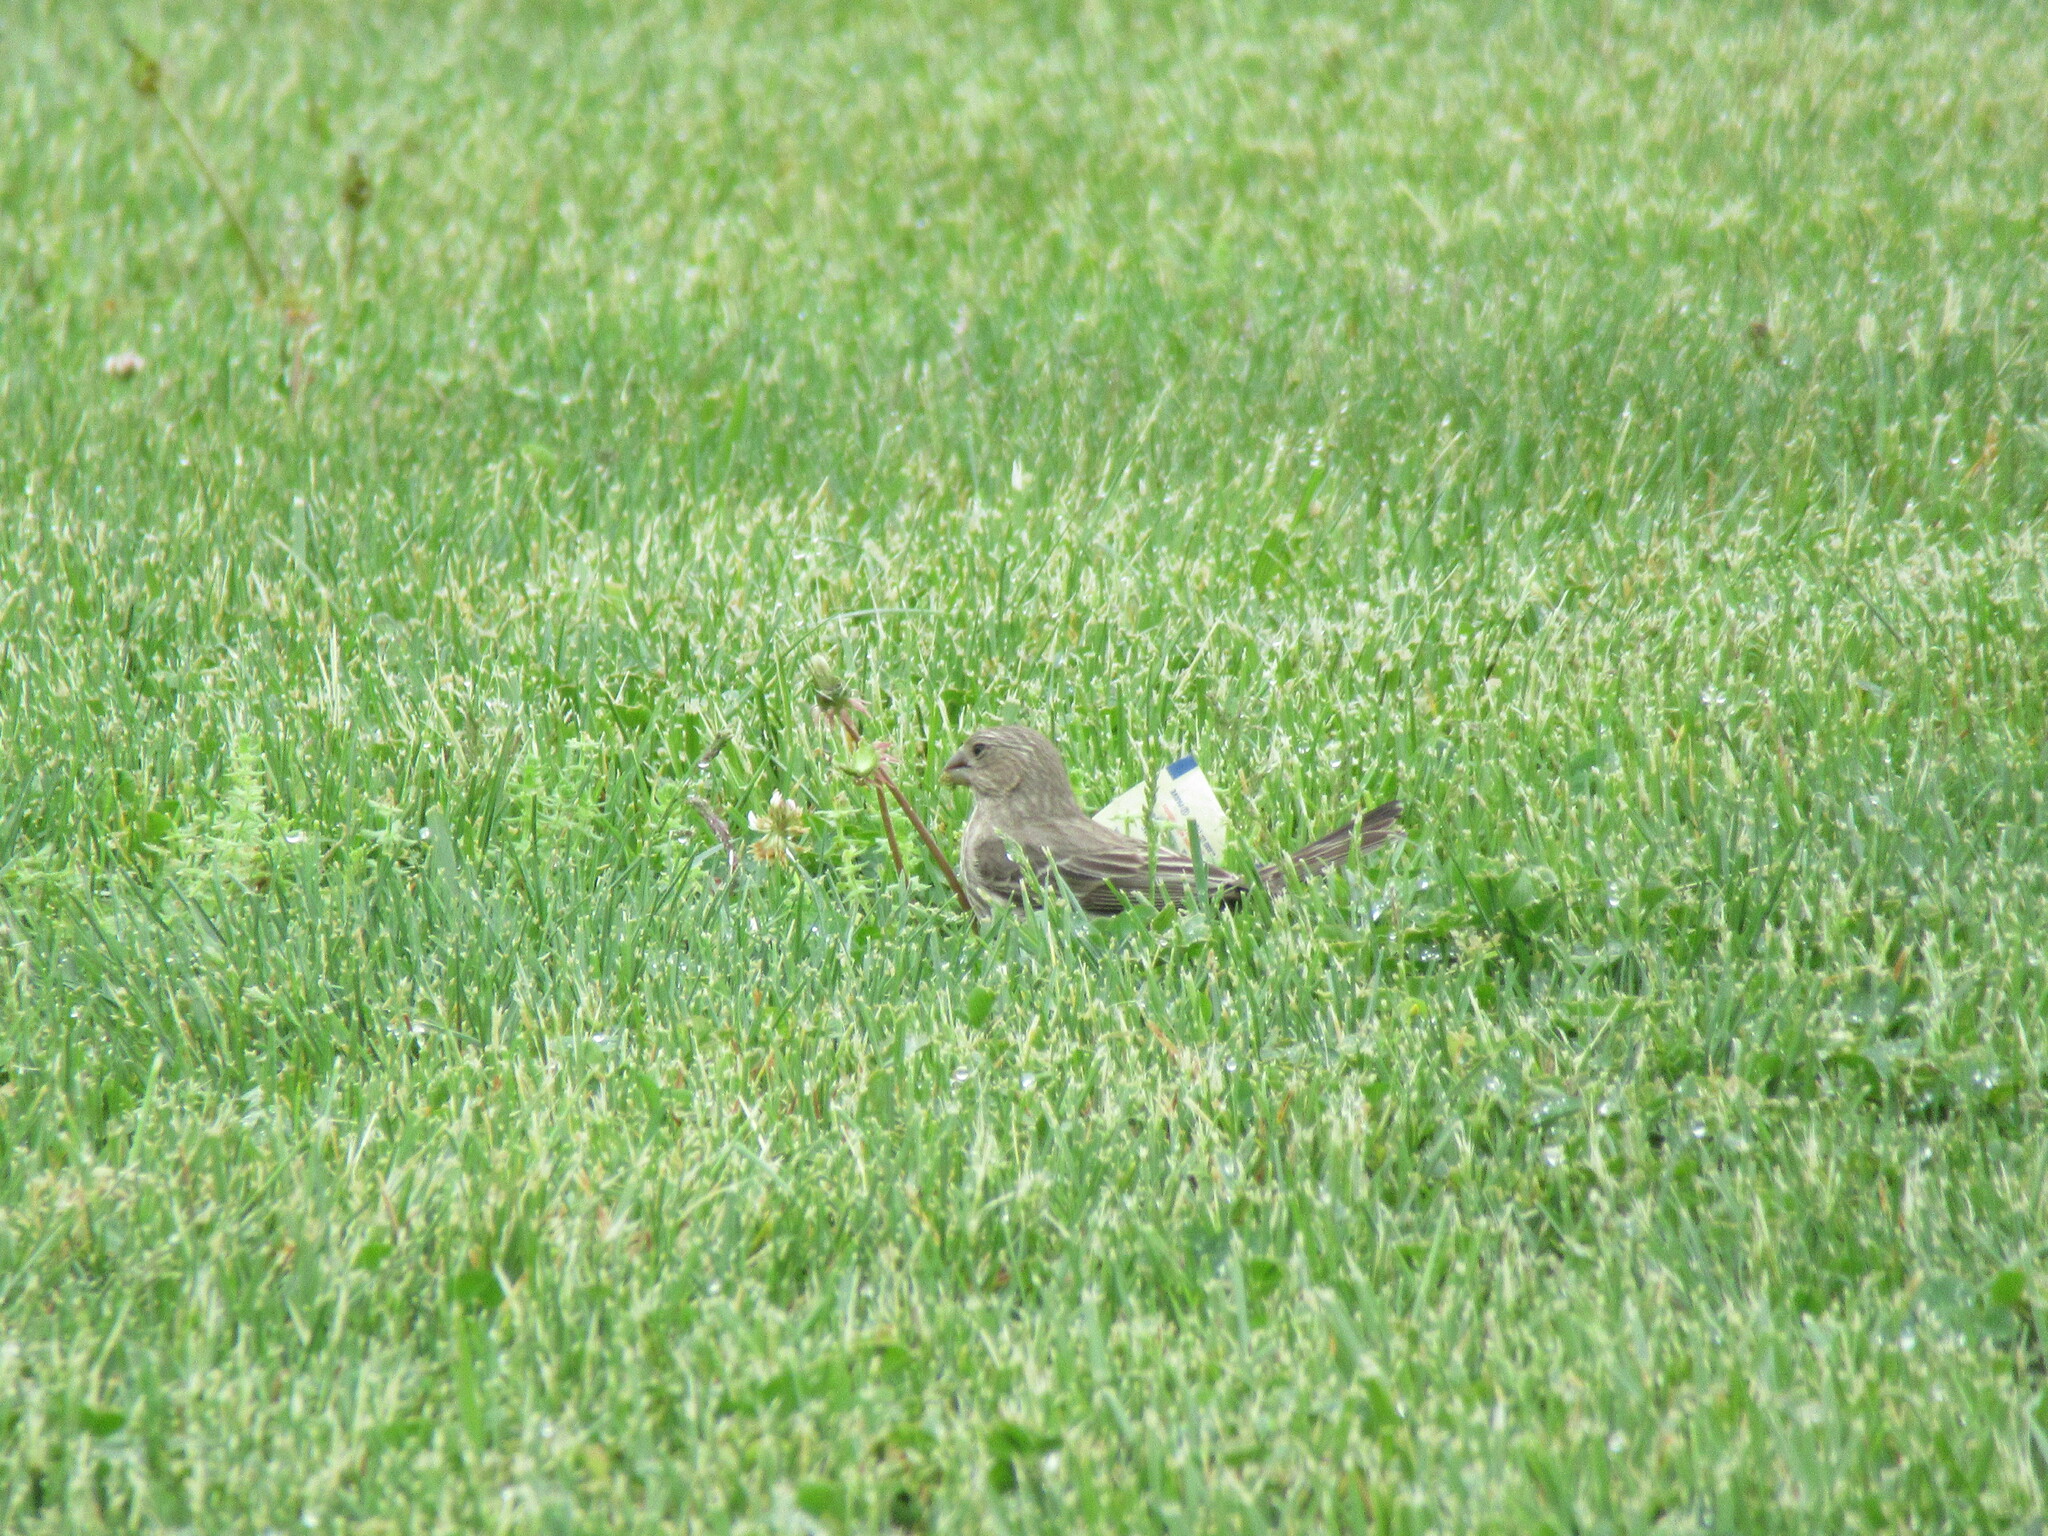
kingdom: Animalia
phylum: Chordata
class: Aves
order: Passeriformes
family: Fringillidae
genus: Haemorhous
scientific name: Haemorhous mexicanus
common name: House finch
